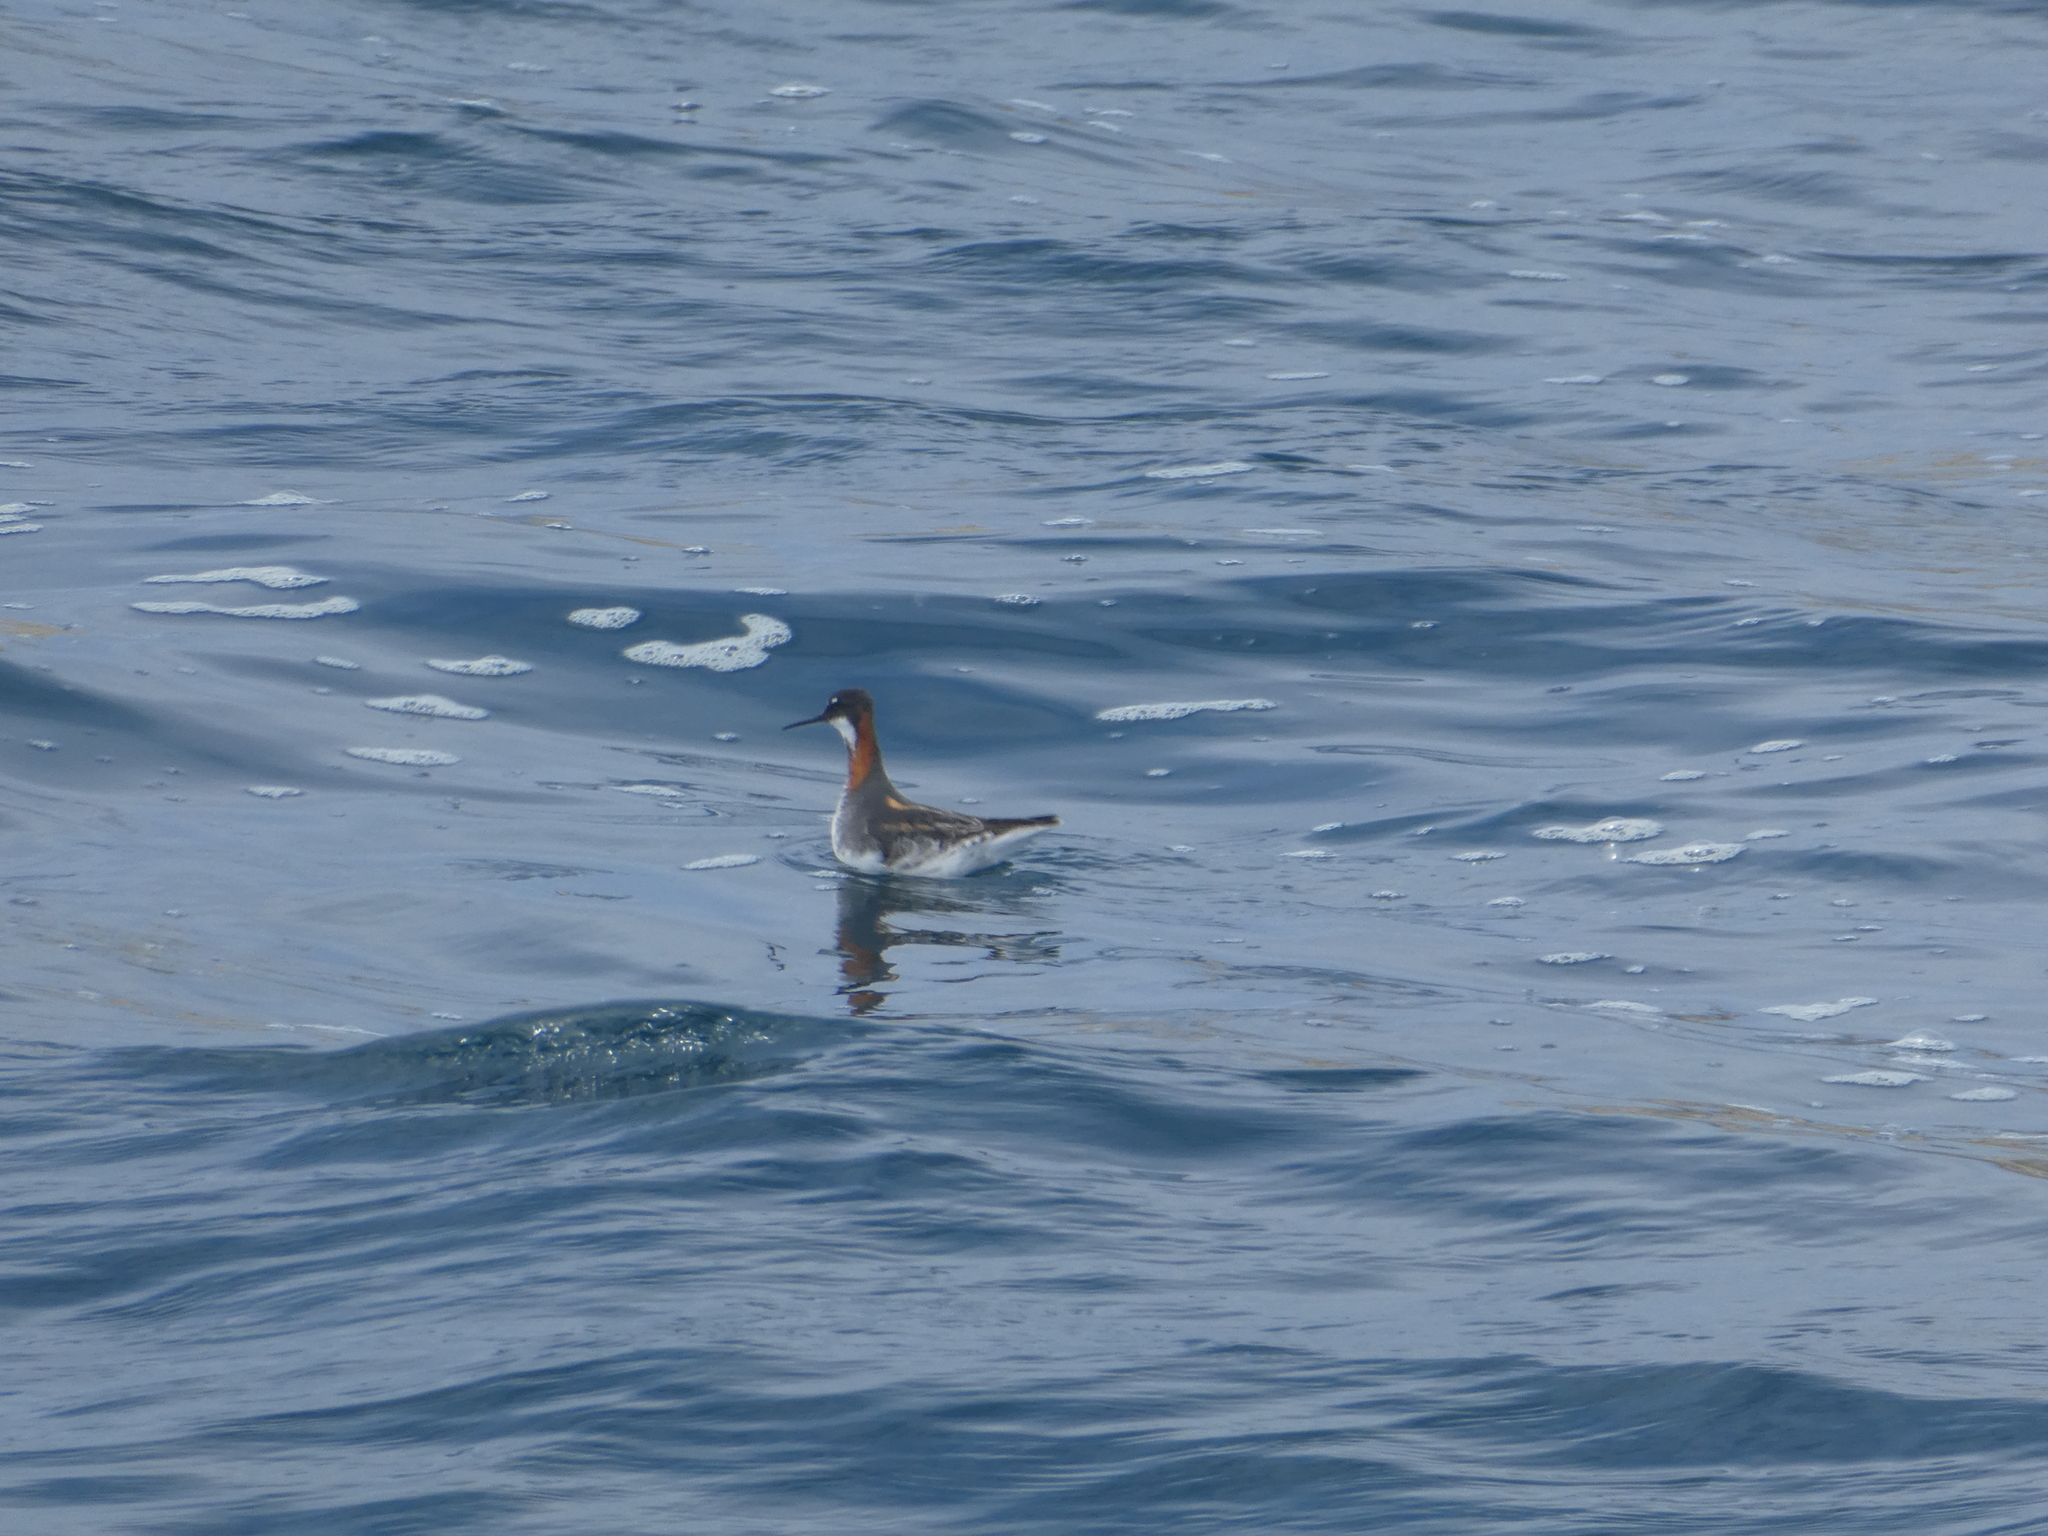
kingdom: Animalia
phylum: Chordata
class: Aves
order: Charadriiformes
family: Scolopacidae
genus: Phalaropus
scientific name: Phalaropus lobatus
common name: Red-necked phalarope
